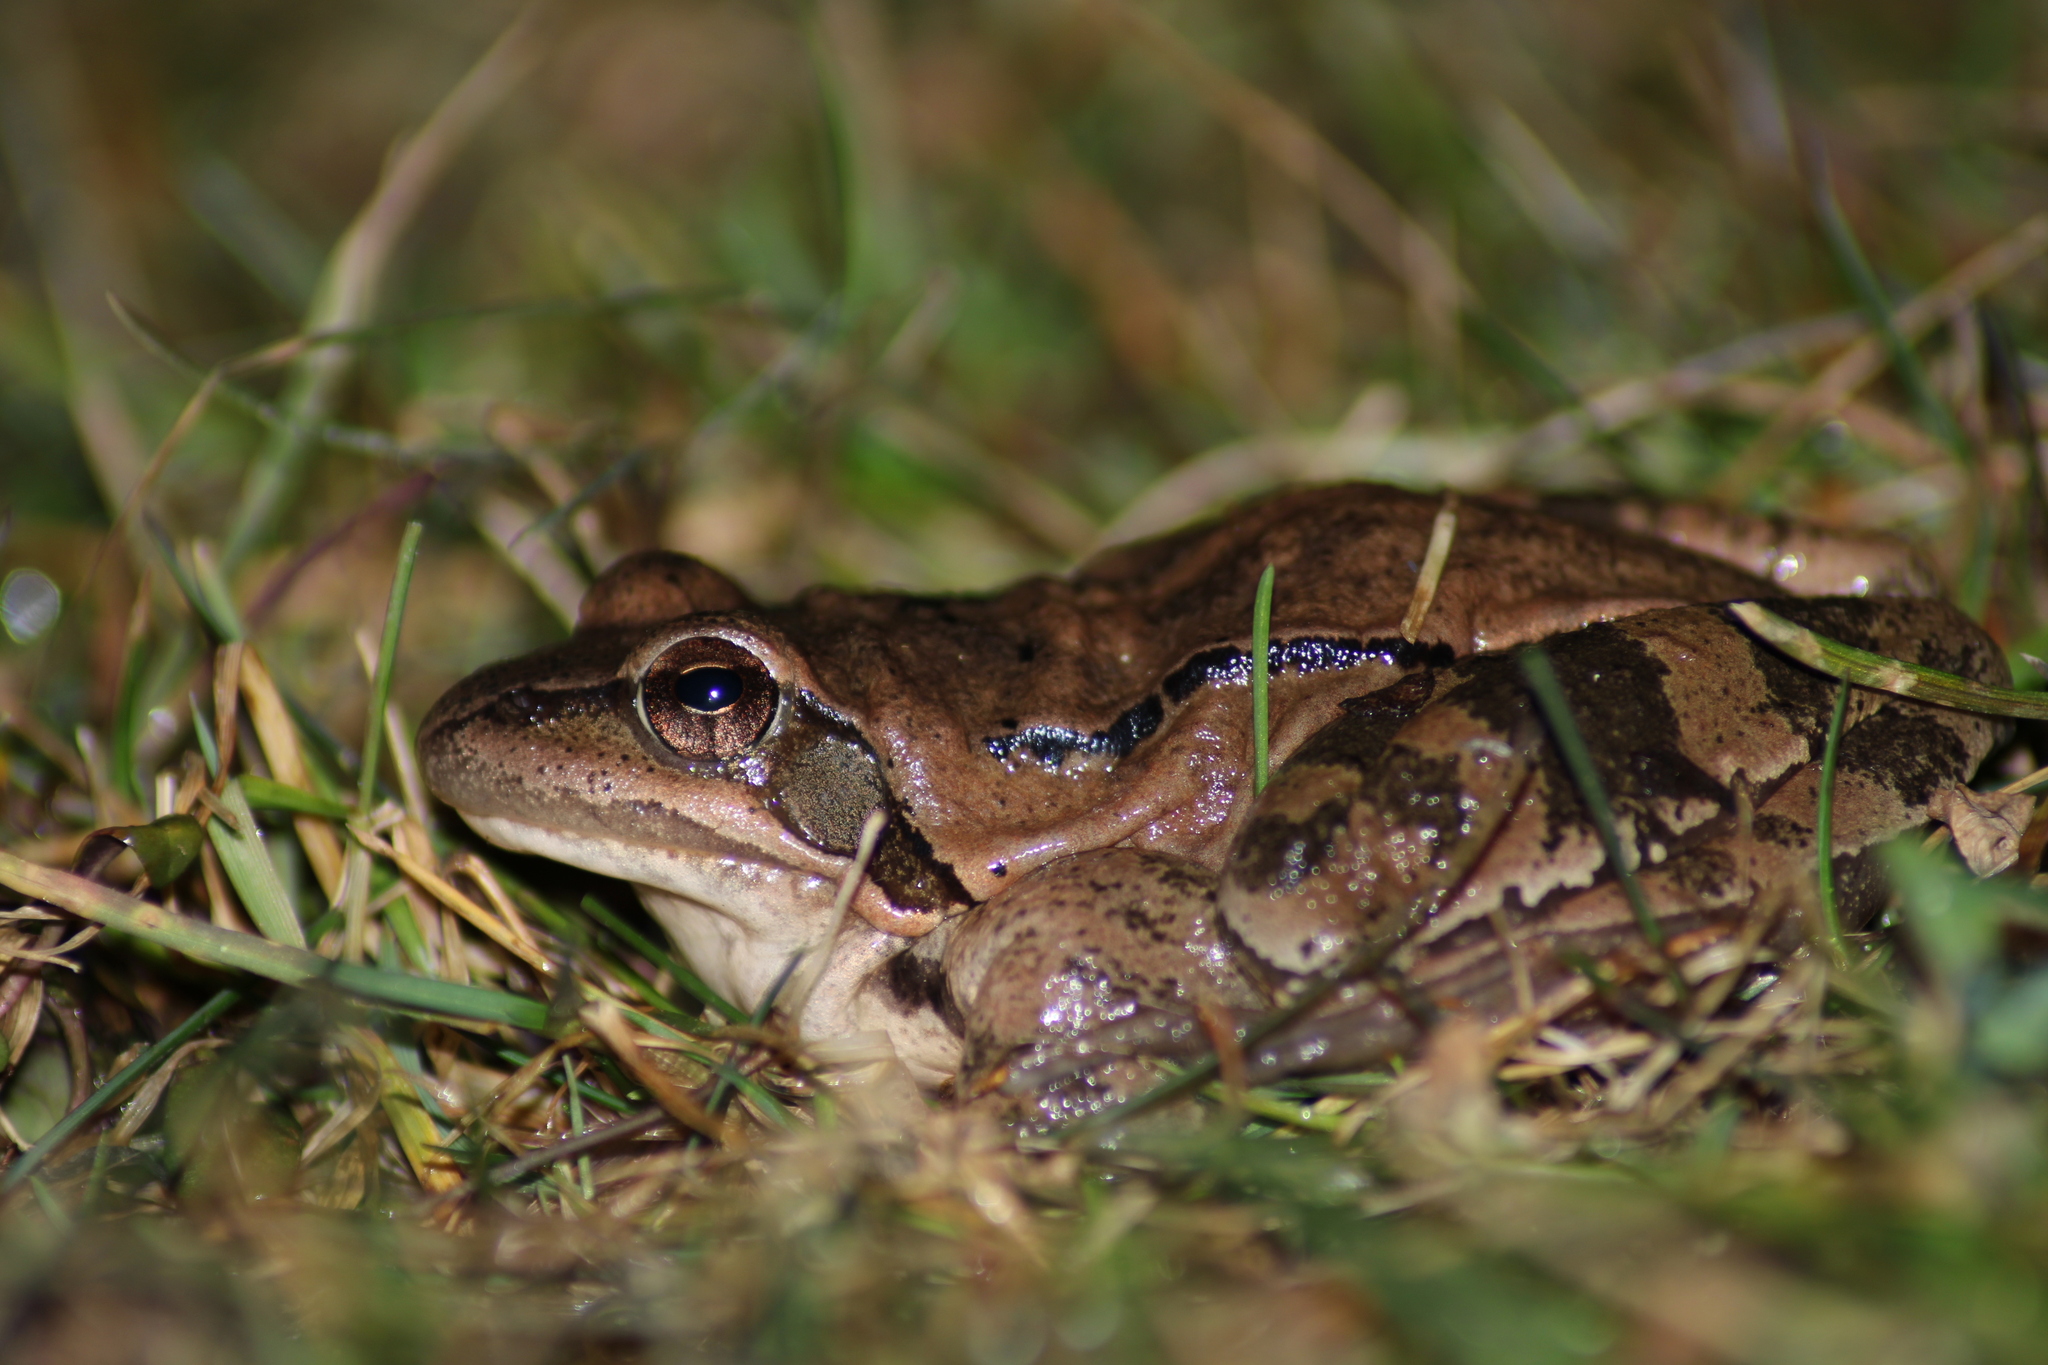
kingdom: Animalia
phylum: Chordata
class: Amphibia
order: Anura
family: Ranidae
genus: Rana
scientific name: Rana dalmatina
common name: Agile frog
